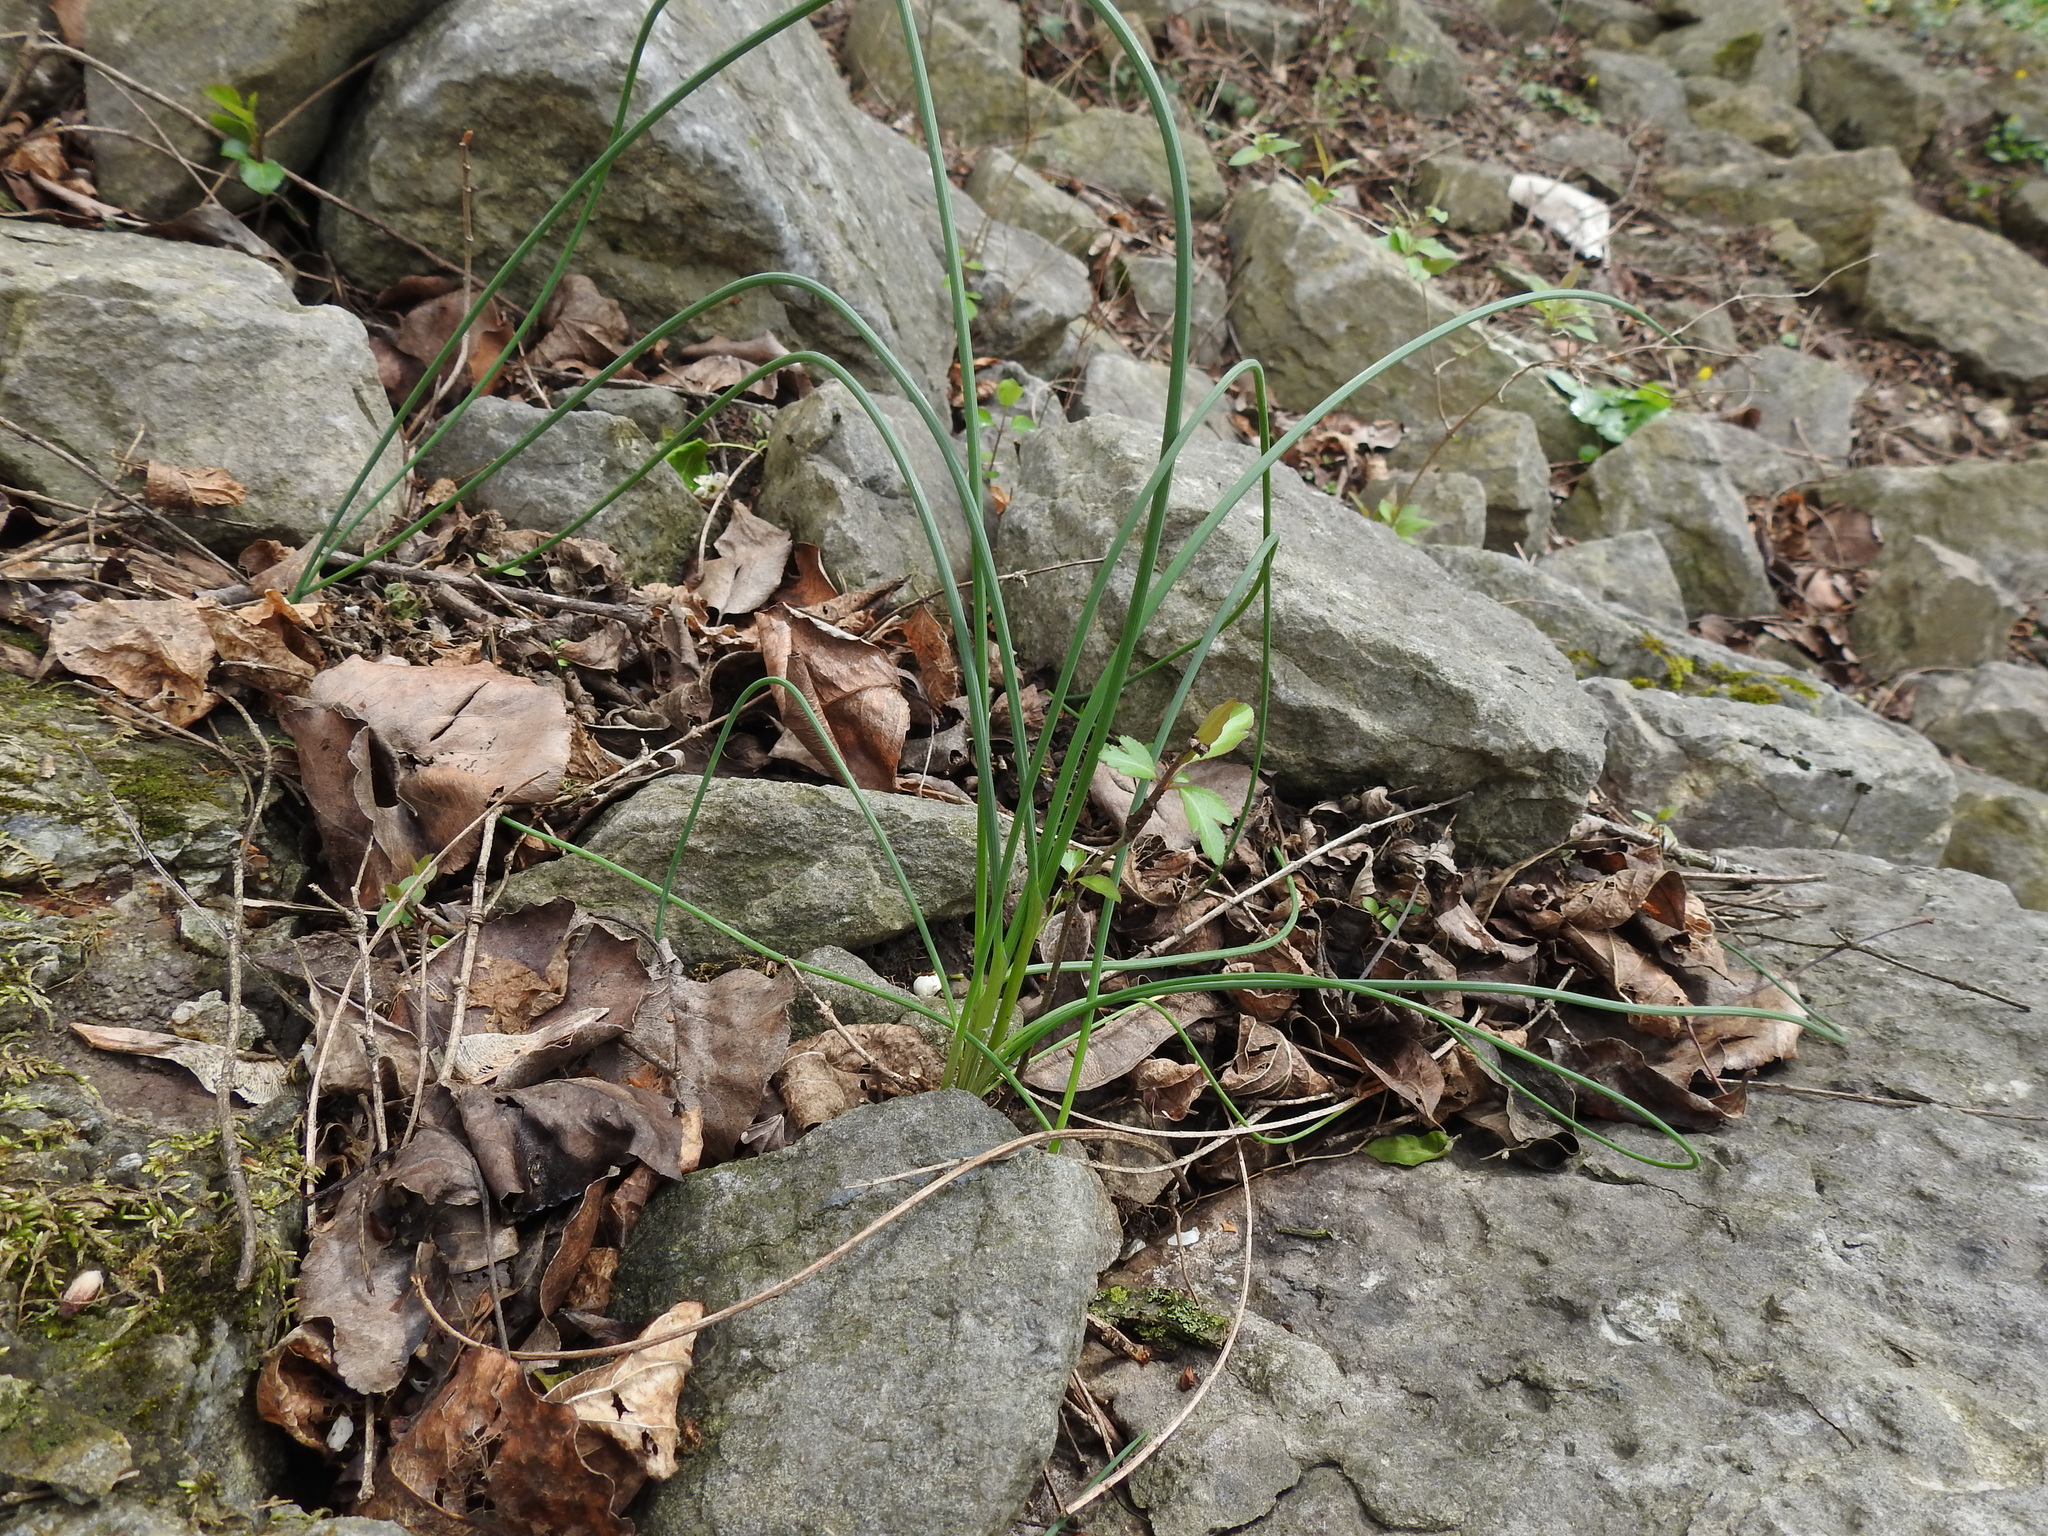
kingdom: Plantae
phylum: Tracheophyta
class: Liliopsida
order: Asparagales
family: Amaryllidaceae
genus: Allium
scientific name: Allium vineale
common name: Crow garlic
